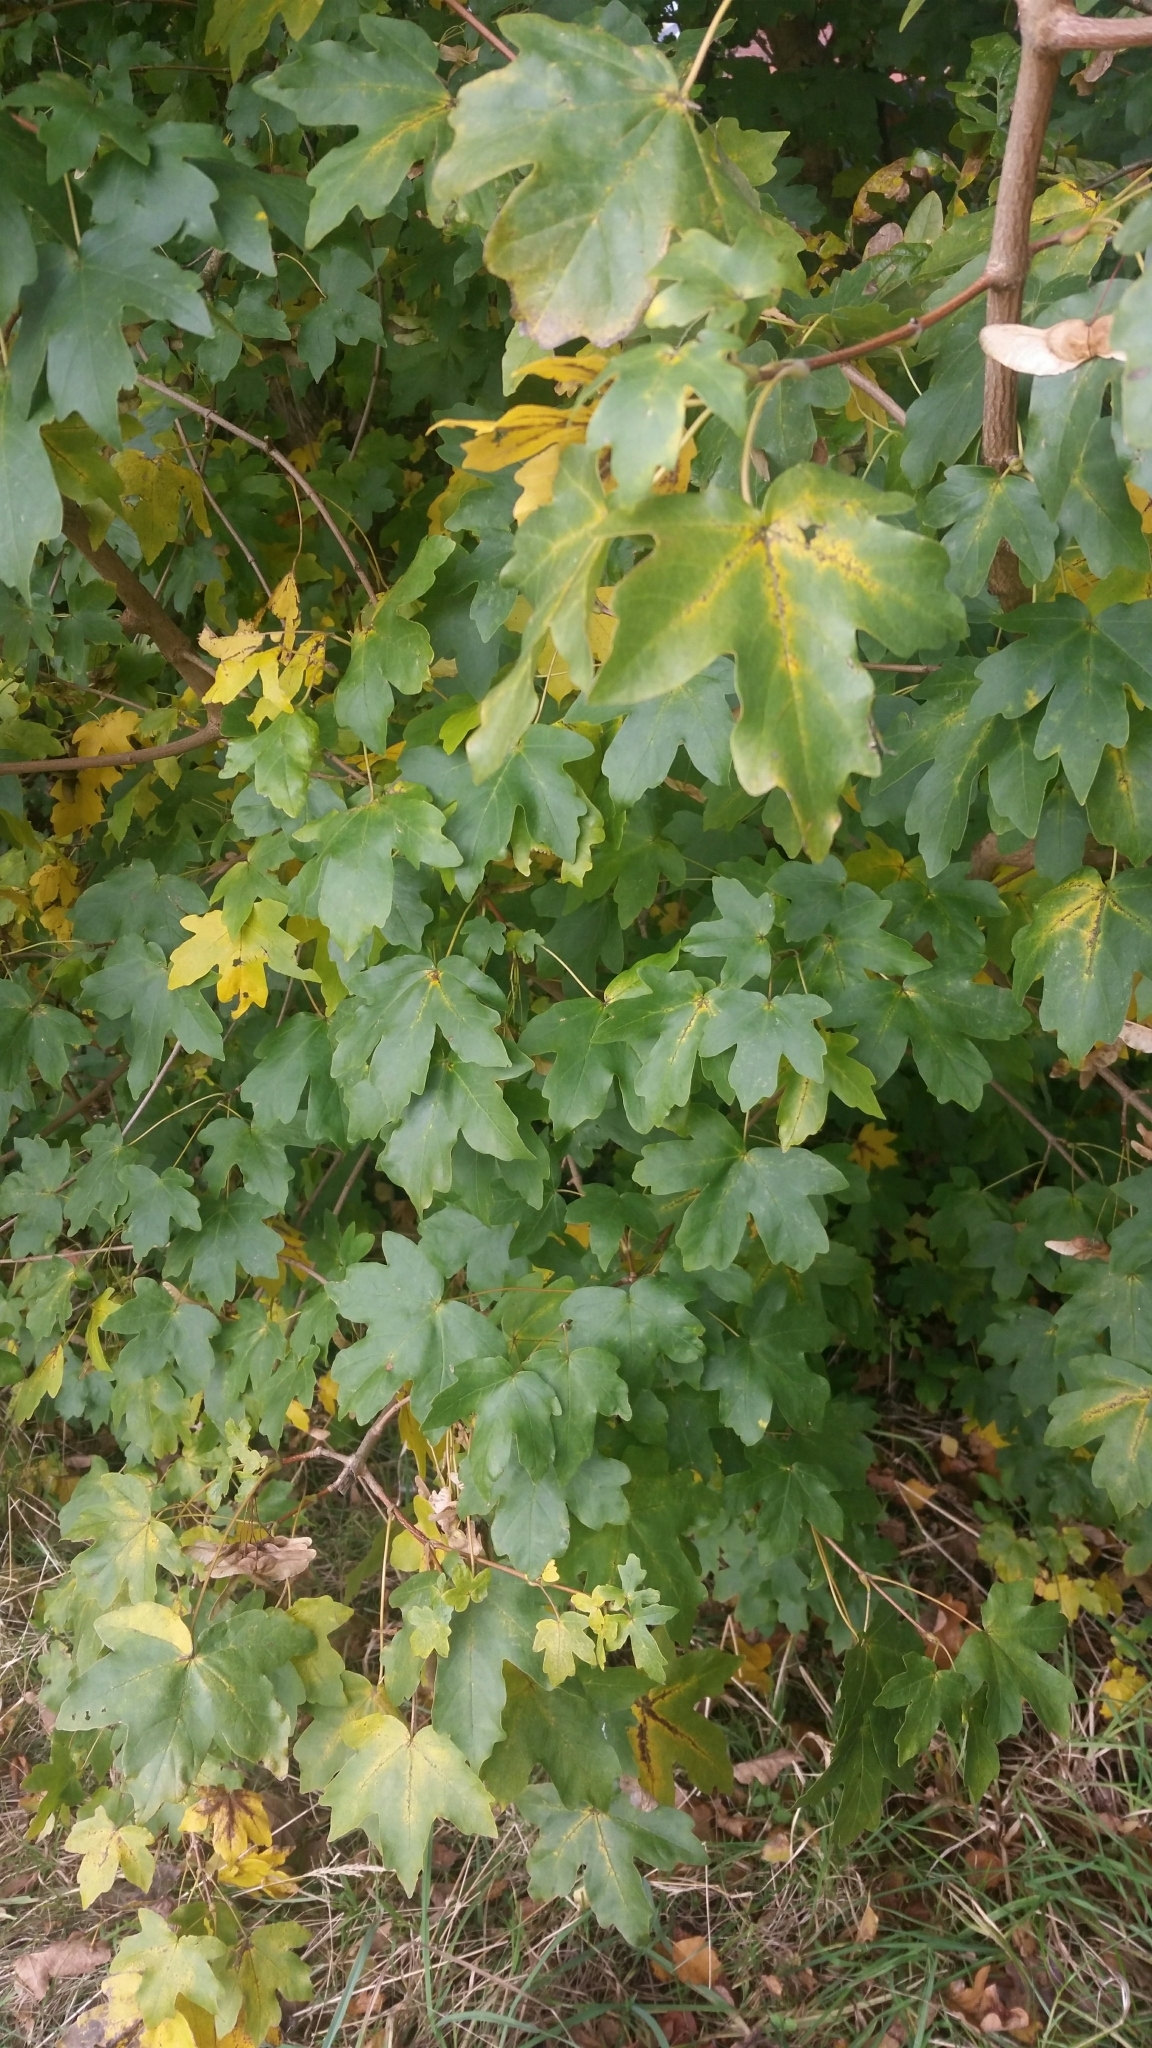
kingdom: Plantae
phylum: Tracheophyta
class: Magnoliopsida
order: Sapindales
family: Sapindaceae
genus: Acer
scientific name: Acer campestre
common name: Field maple
